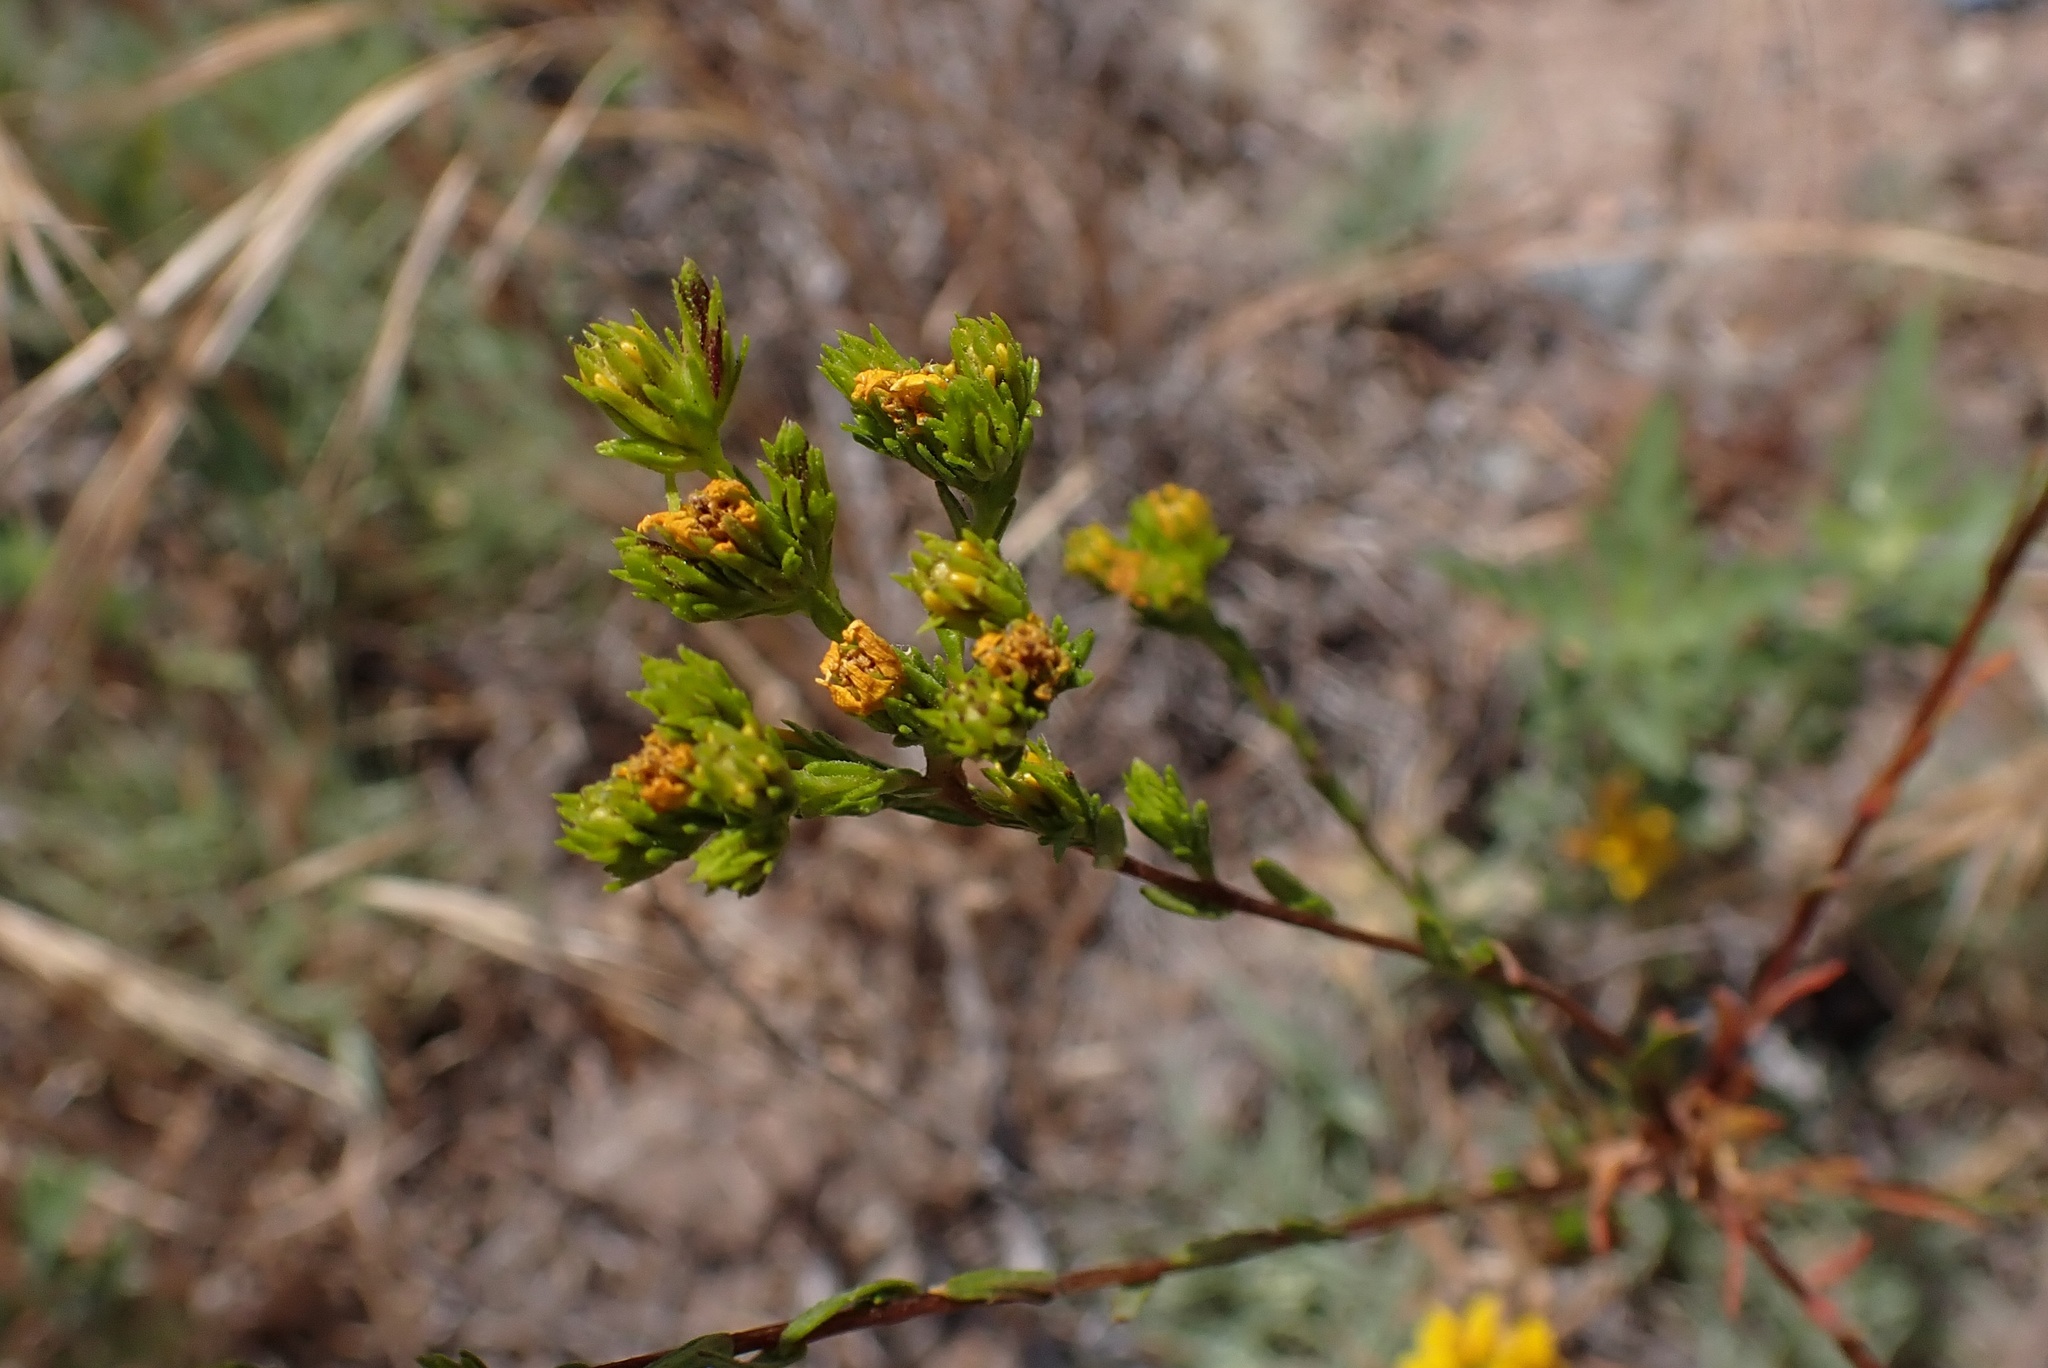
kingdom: Plantae
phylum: Tracheophyta
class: Magnoliopsida
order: Asterales
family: Asteraceae
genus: Deinandra
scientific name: Deinandra fasciculata
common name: Clustered tarweed
